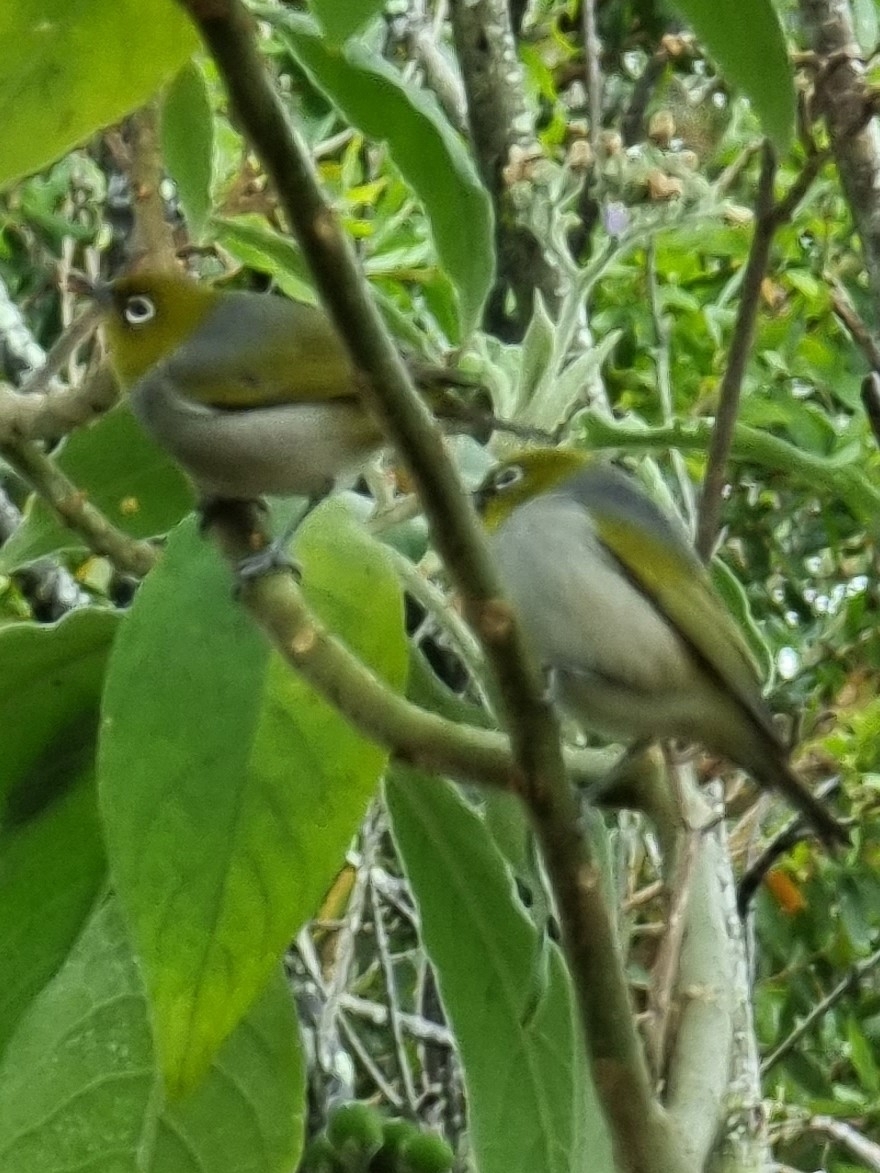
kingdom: Animalia
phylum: Chordata
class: Aves
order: Passeriformes
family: Zosteropidae
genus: Zosterops
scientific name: Zosterops lateralis
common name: Silvereye
